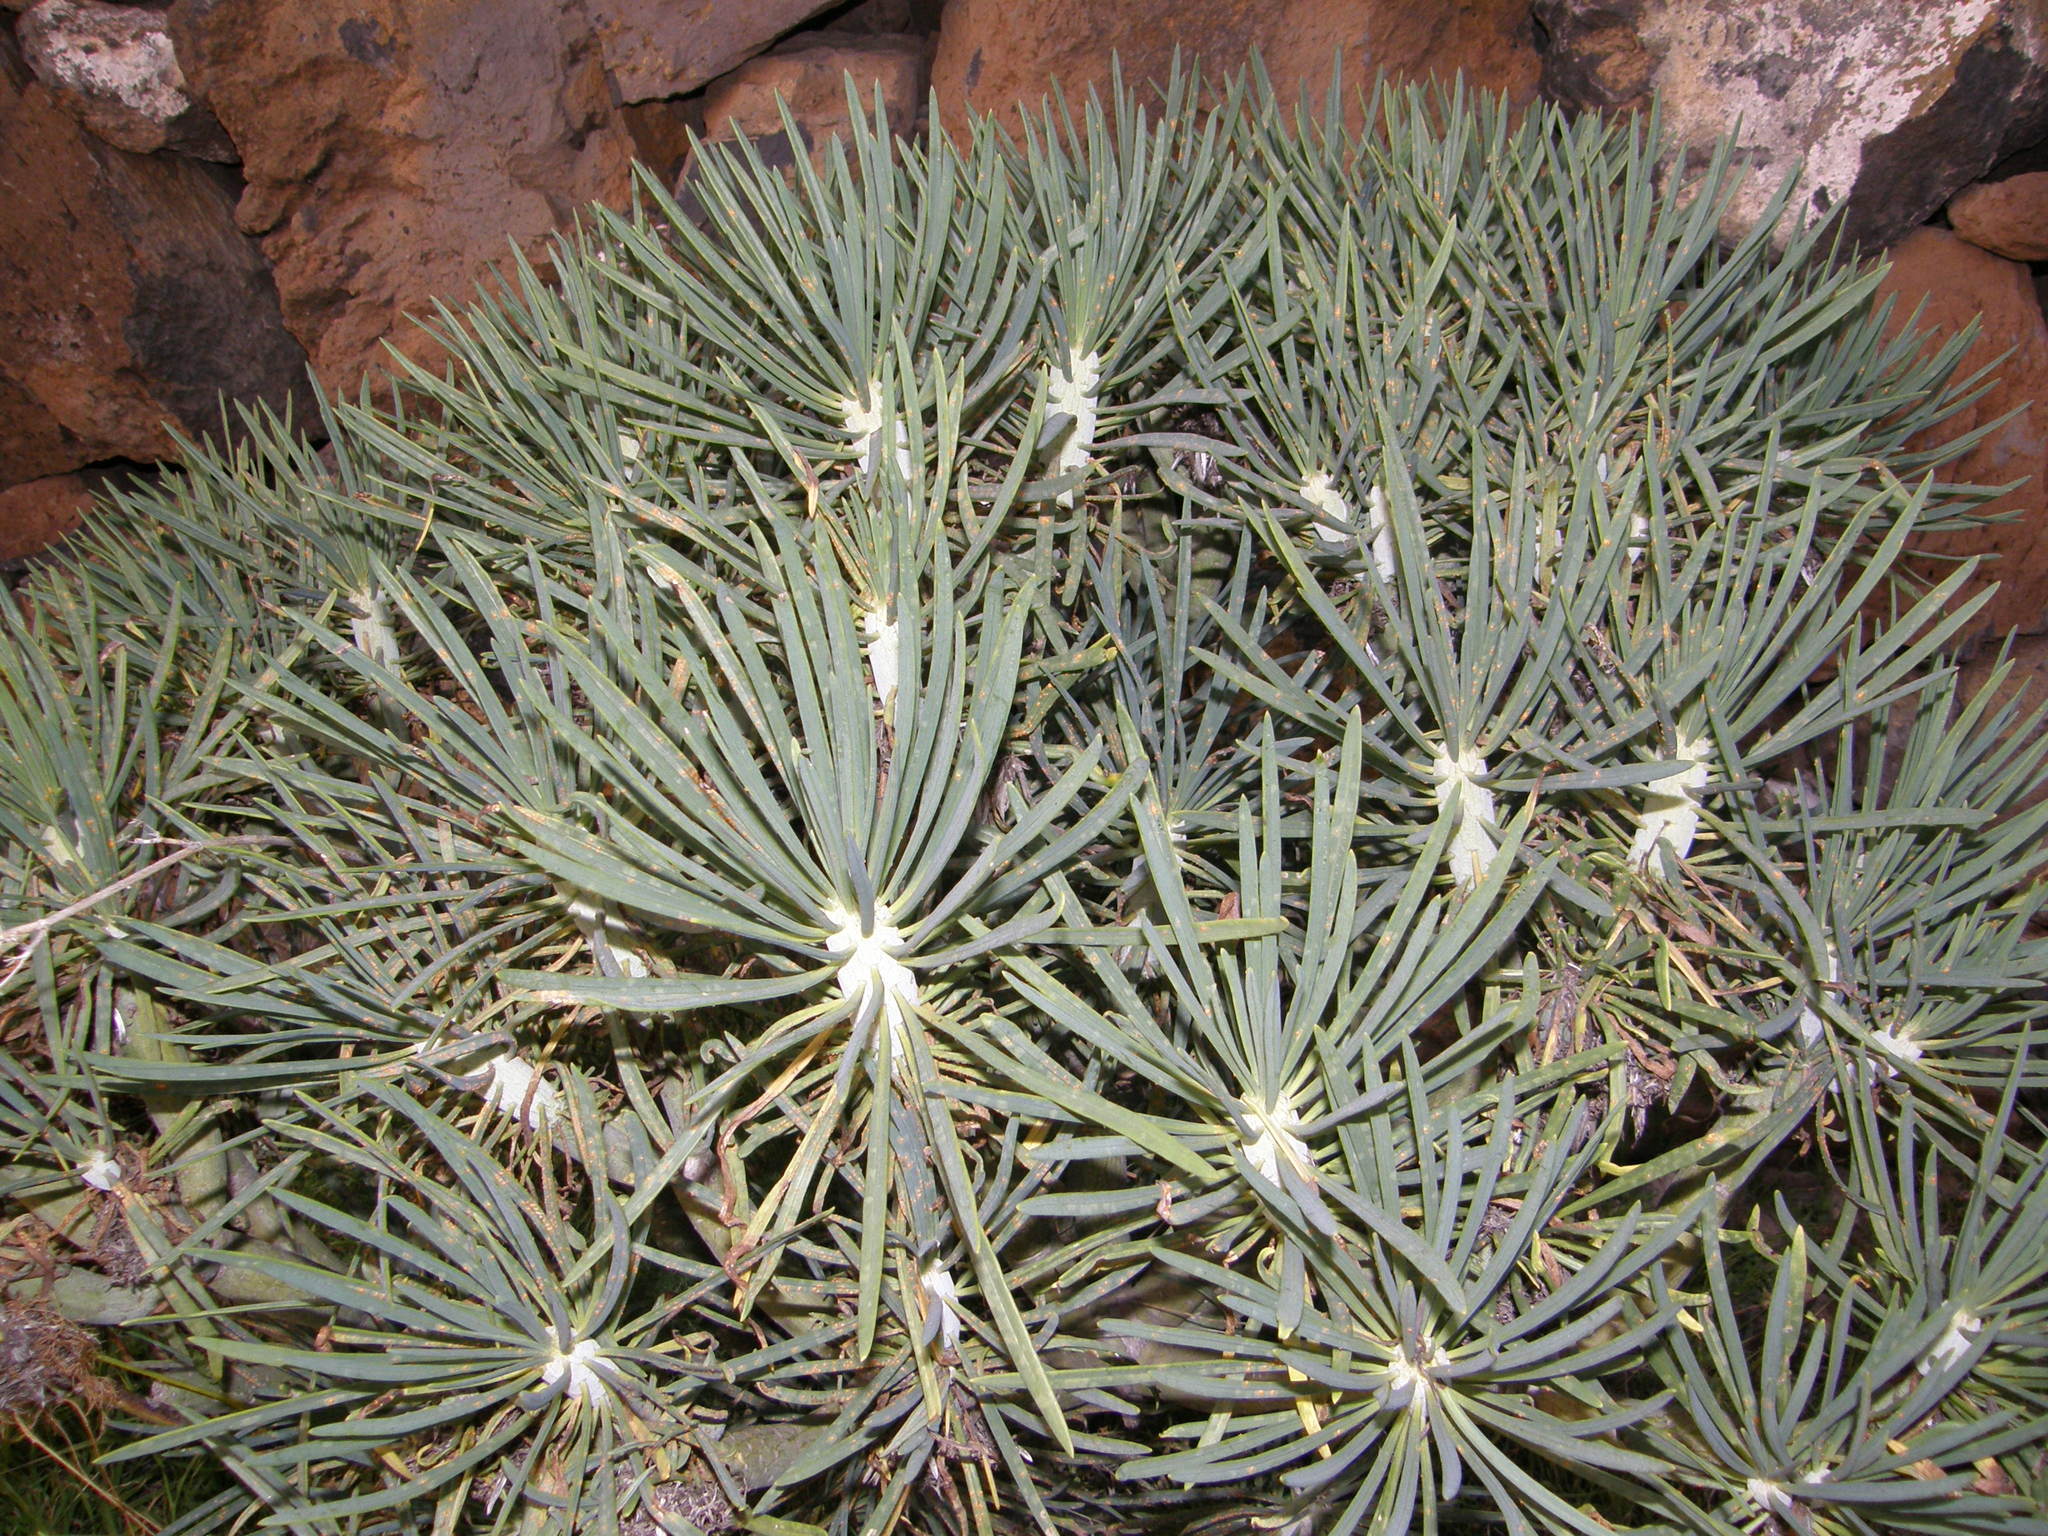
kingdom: Plantae
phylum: Tracheophyta
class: Magnoliopsida
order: Asterales
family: Asteraceae
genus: Kleinia
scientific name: Kleinia neriifolia
